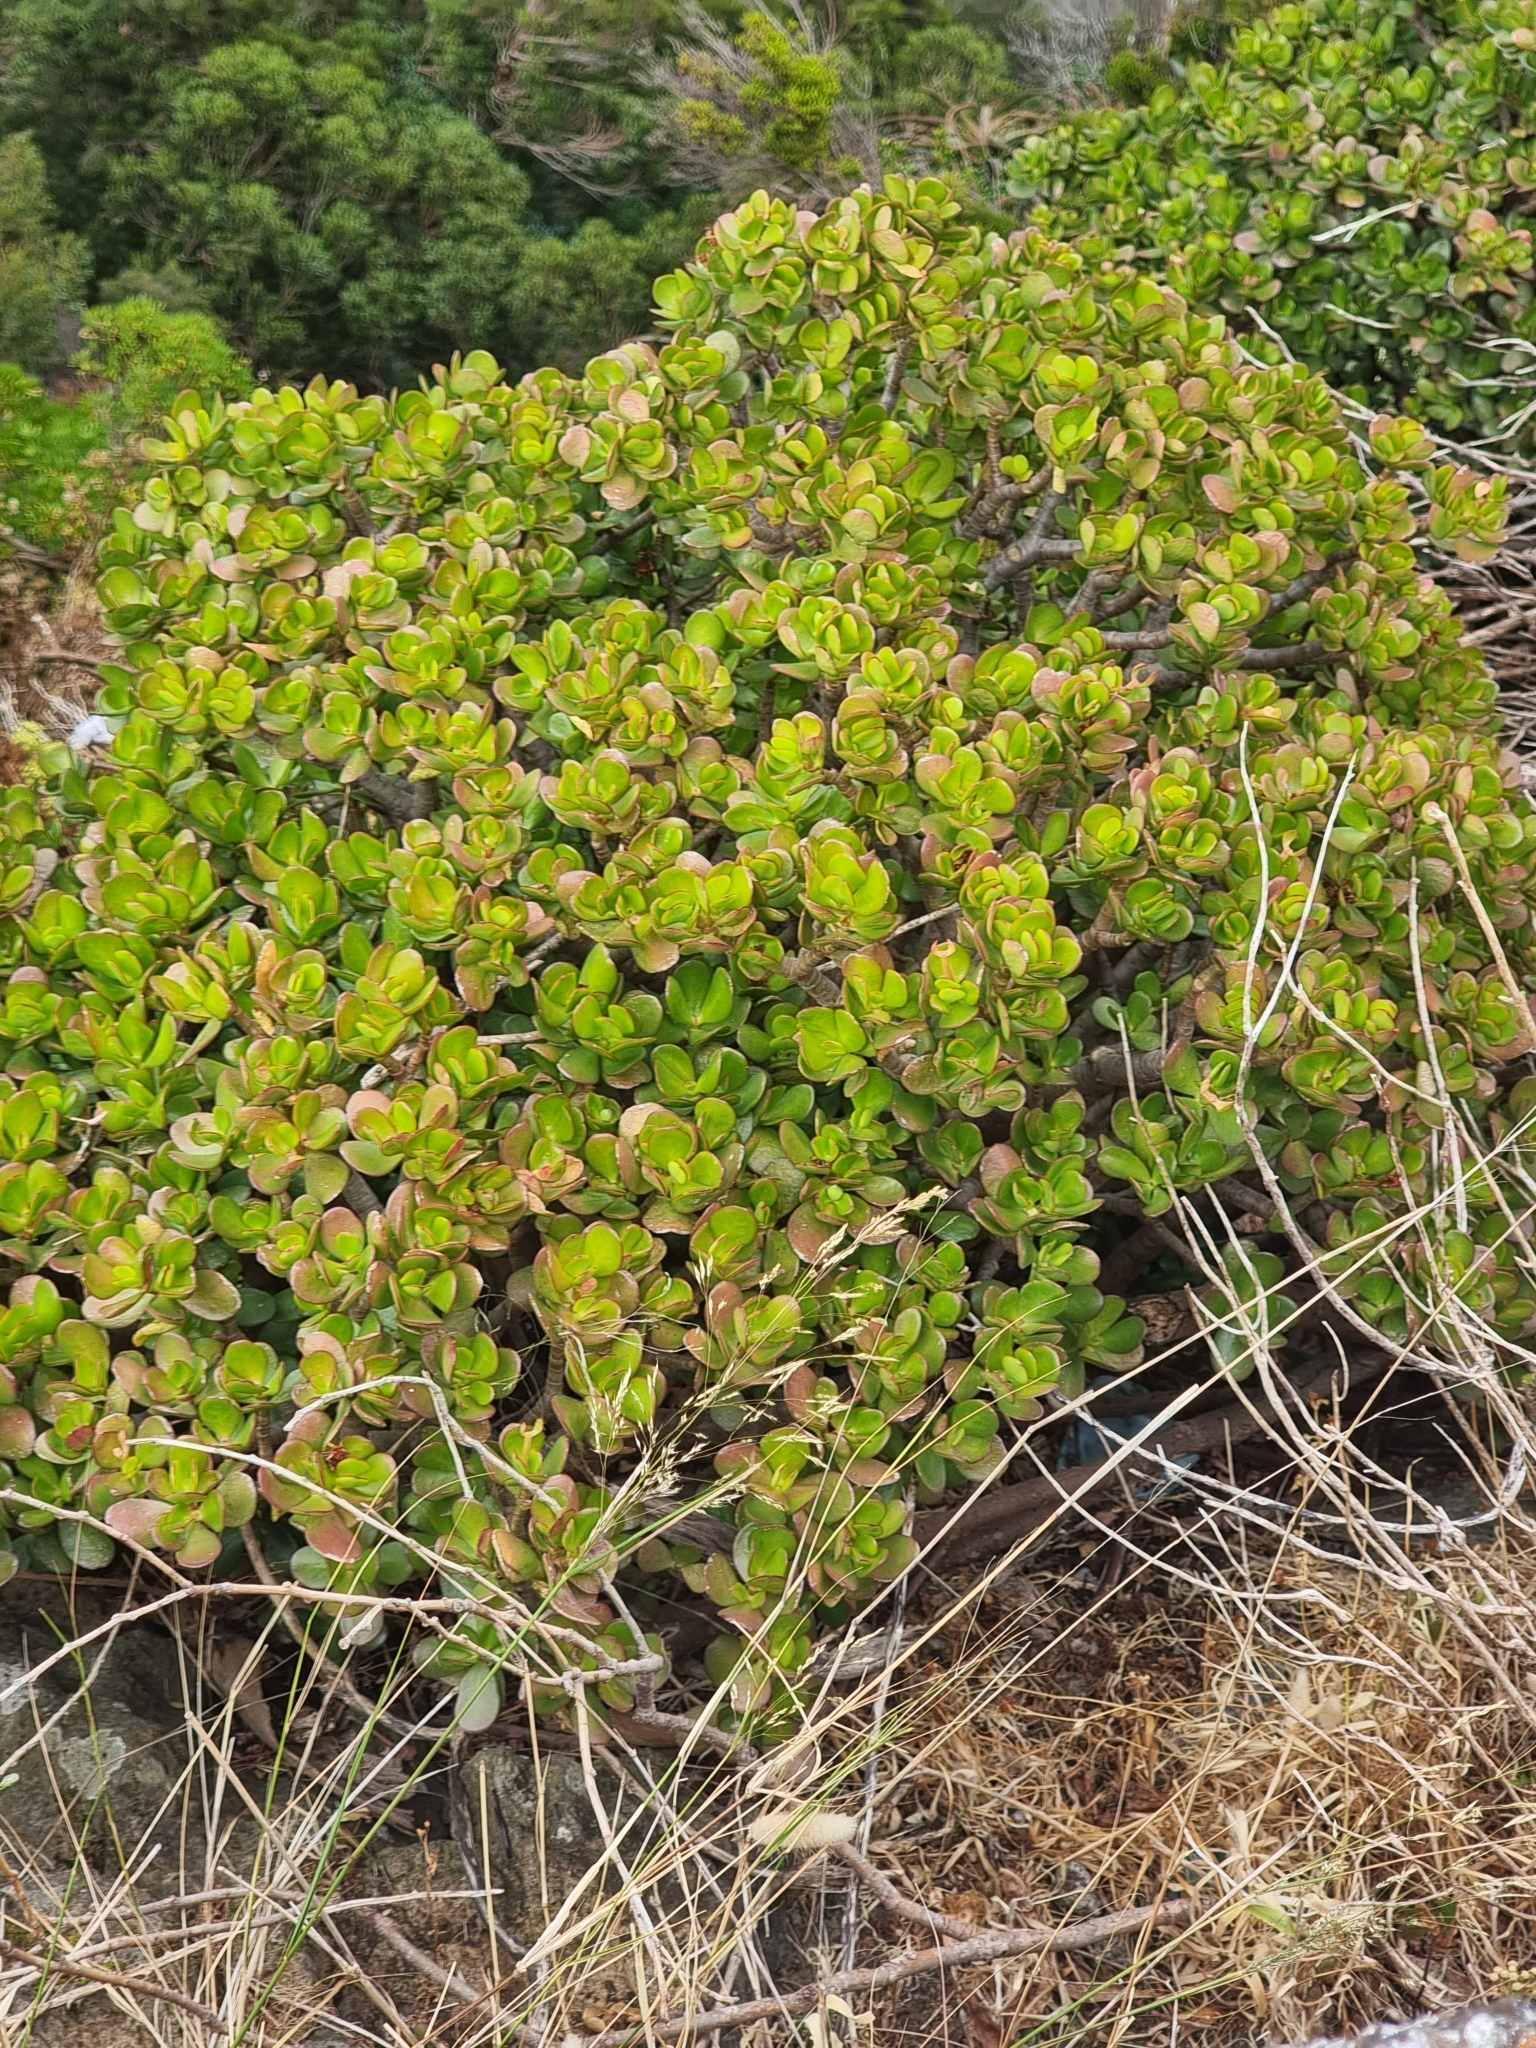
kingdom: Plantae
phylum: Tracheophyta
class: Magnoliopsida
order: Saxifragales
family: Crassulaceae
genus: Crassula
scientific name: Crassula ovata
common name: Jade plant
